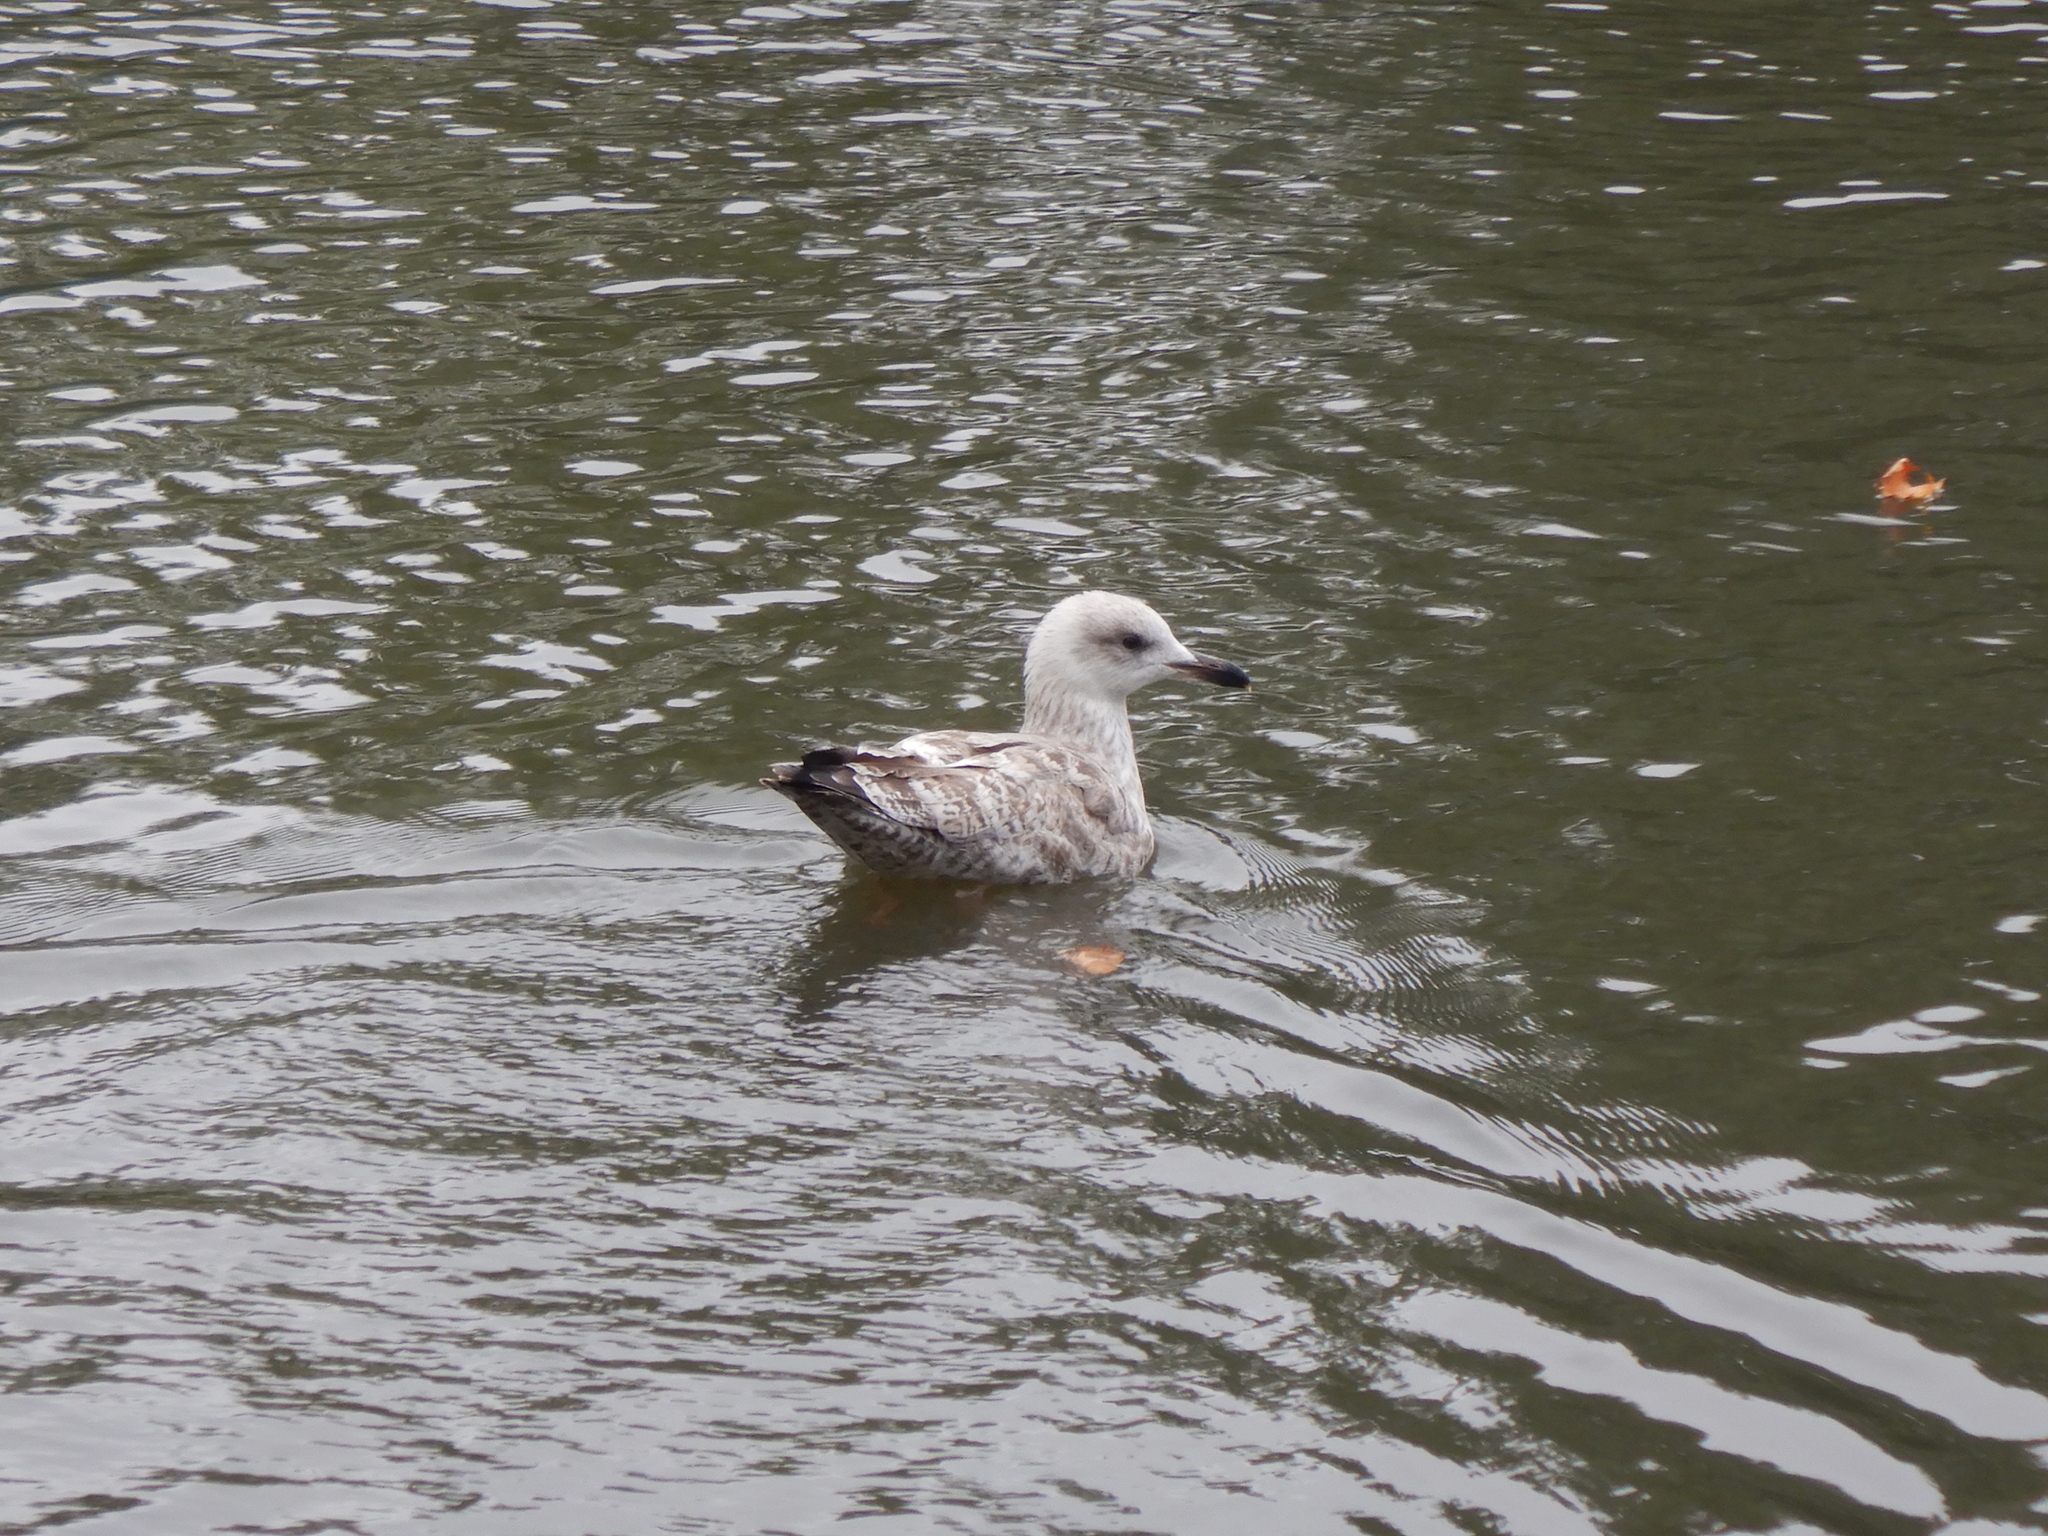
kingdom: Animalia
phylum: Chordata
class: Aves
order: Charadriiformes
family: Laridae
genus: Larus
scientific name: Larus argentatus
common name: Herring gull
